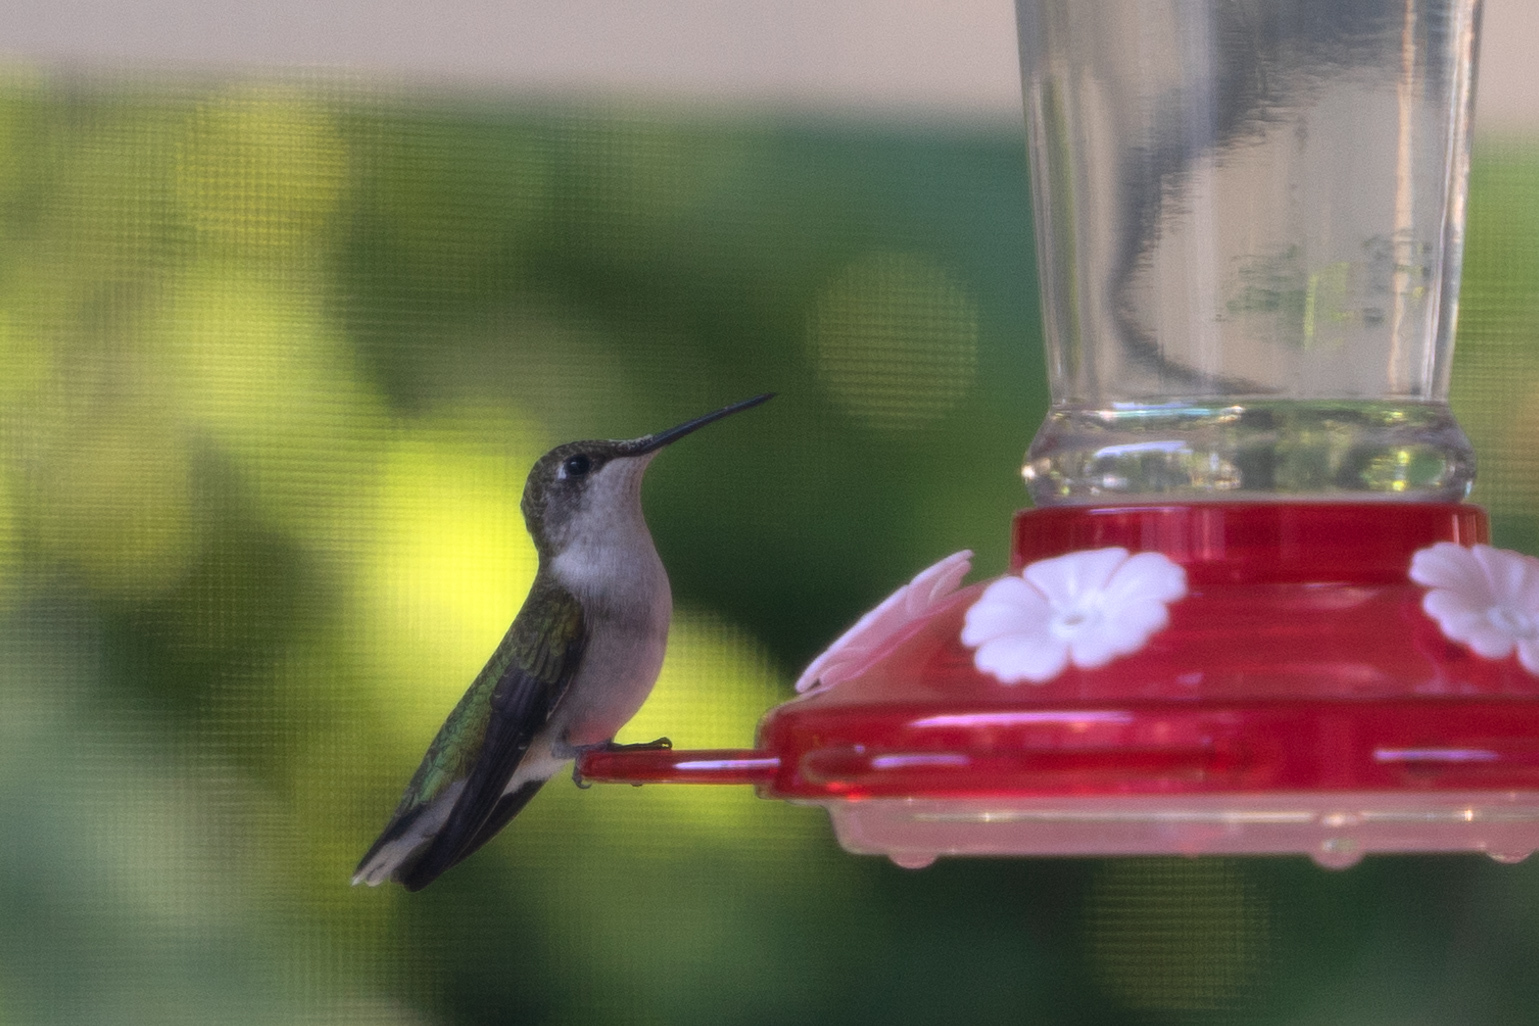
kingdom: Animalia
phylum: Chordata
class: Aves
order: Apodiformes
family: Trochilidae
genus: Archilochus
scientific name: Archilochus colubris
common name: Ruby-throated hummingbird
